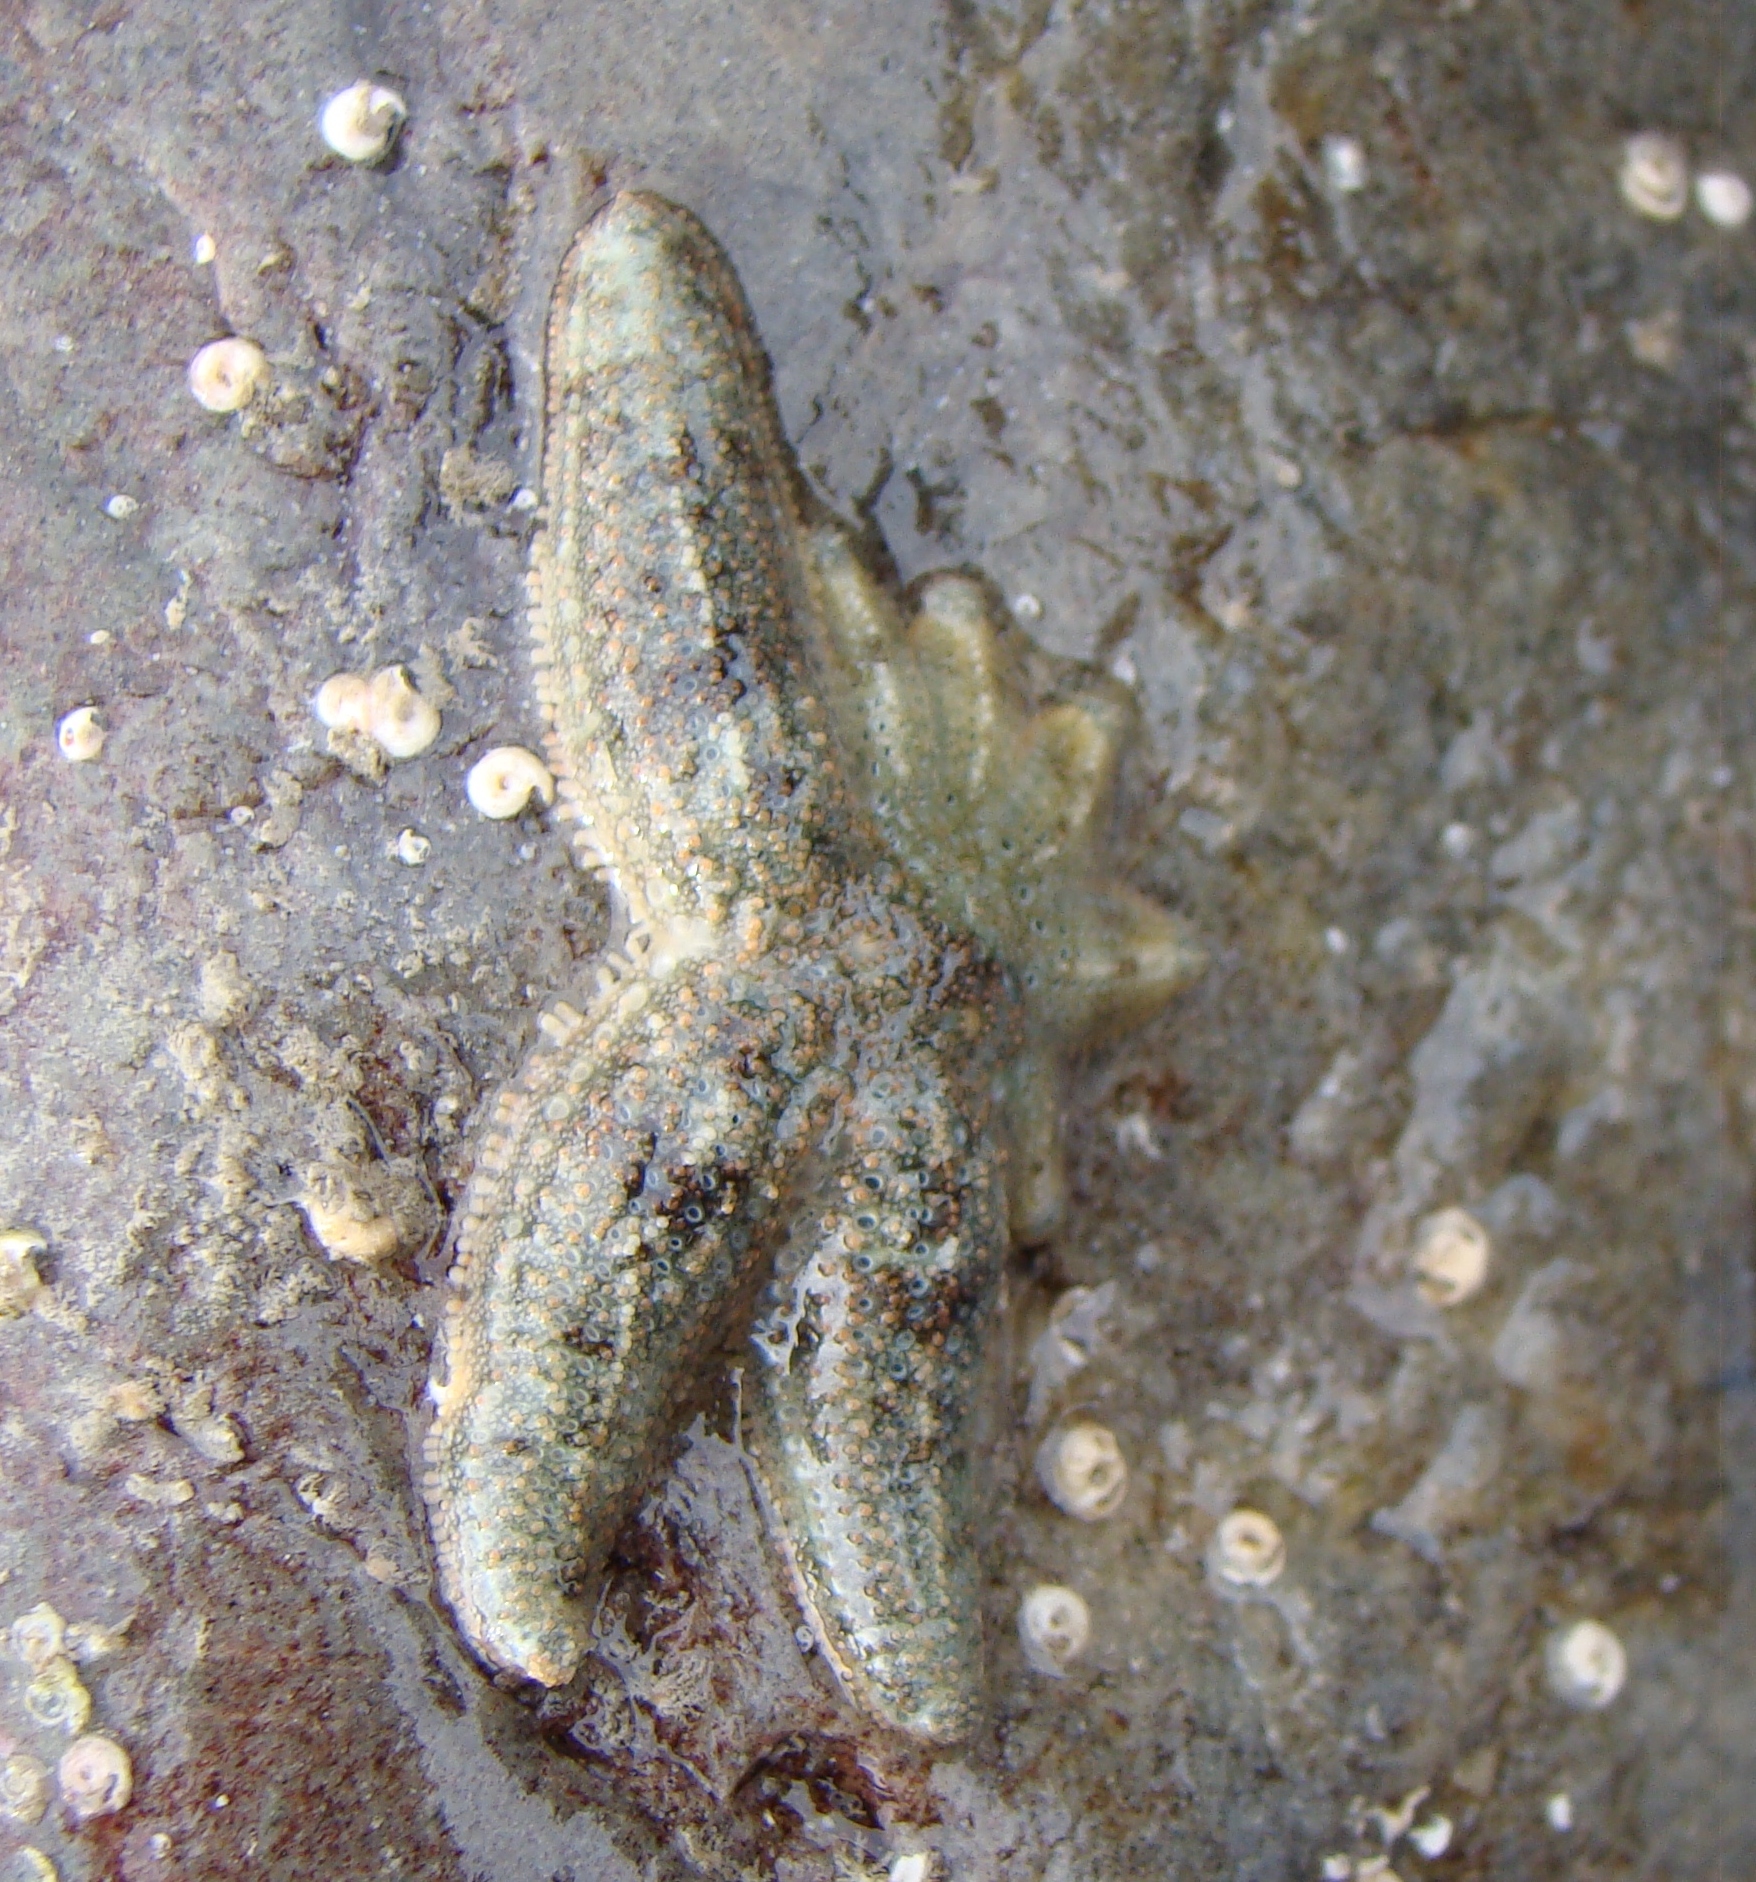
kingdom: Animalia
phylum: Echinodermata
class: Asteroidea
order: Forcipulatida
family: Stichasteridae
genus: Allostichaster
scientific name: Allostichaster polyplax
